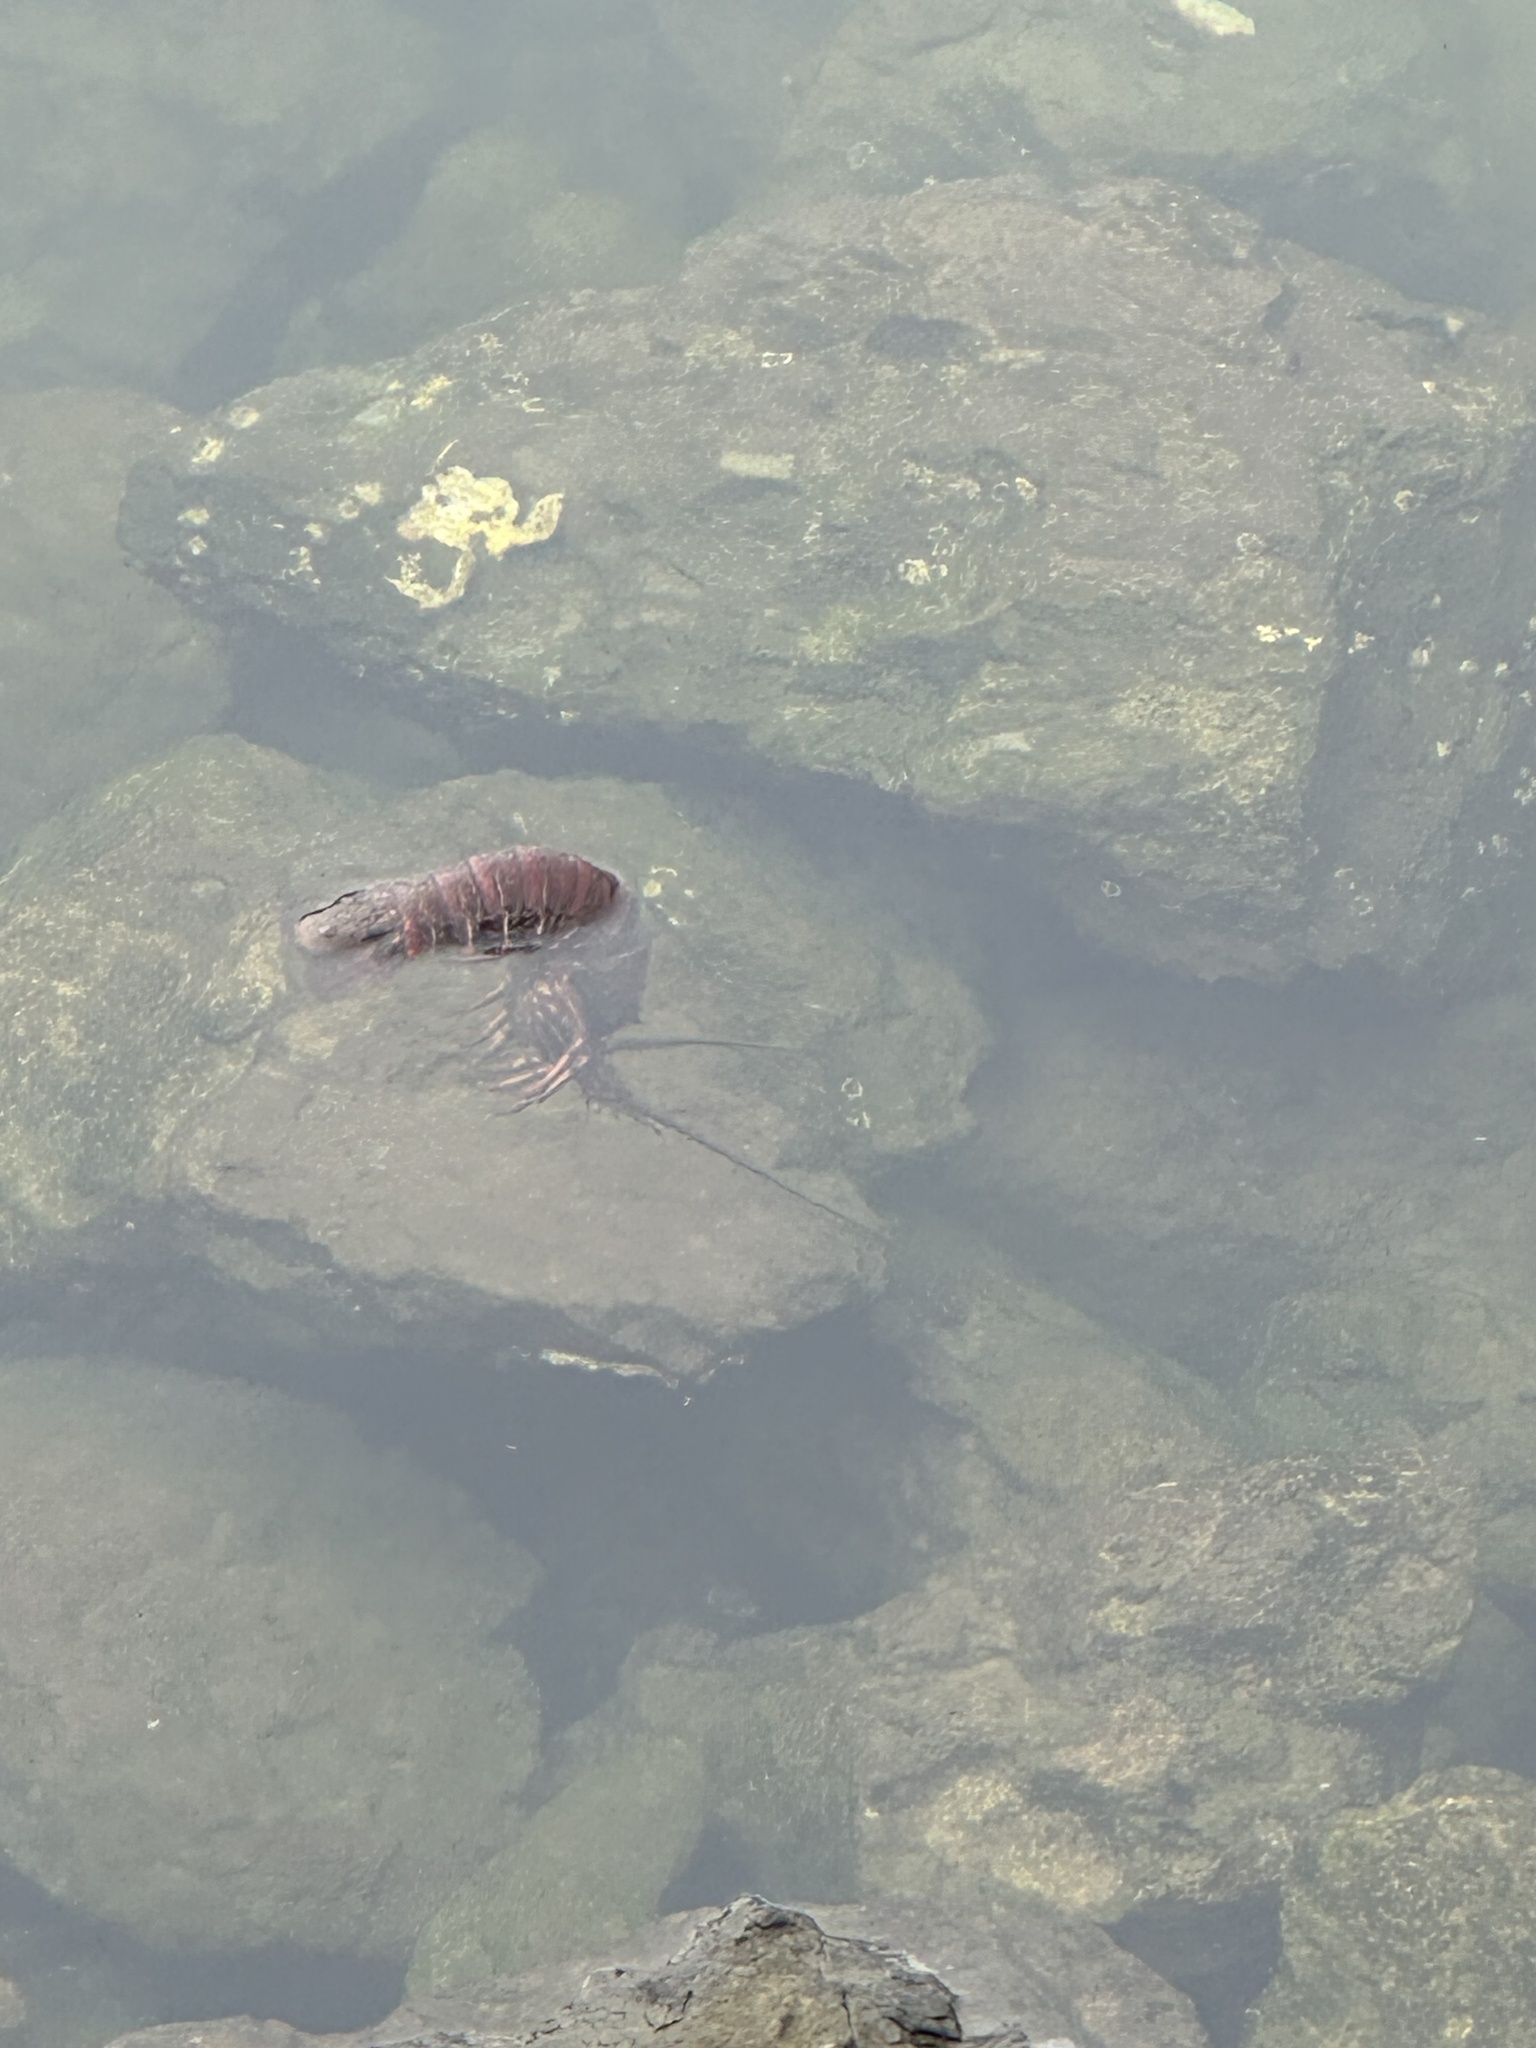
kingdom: Animalia
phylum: Arthropoda
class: Malacostraca
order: Decapoda
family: Palinuridae
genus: Panulirus
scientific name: Panulirus interruptus
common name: California spiny lobster
